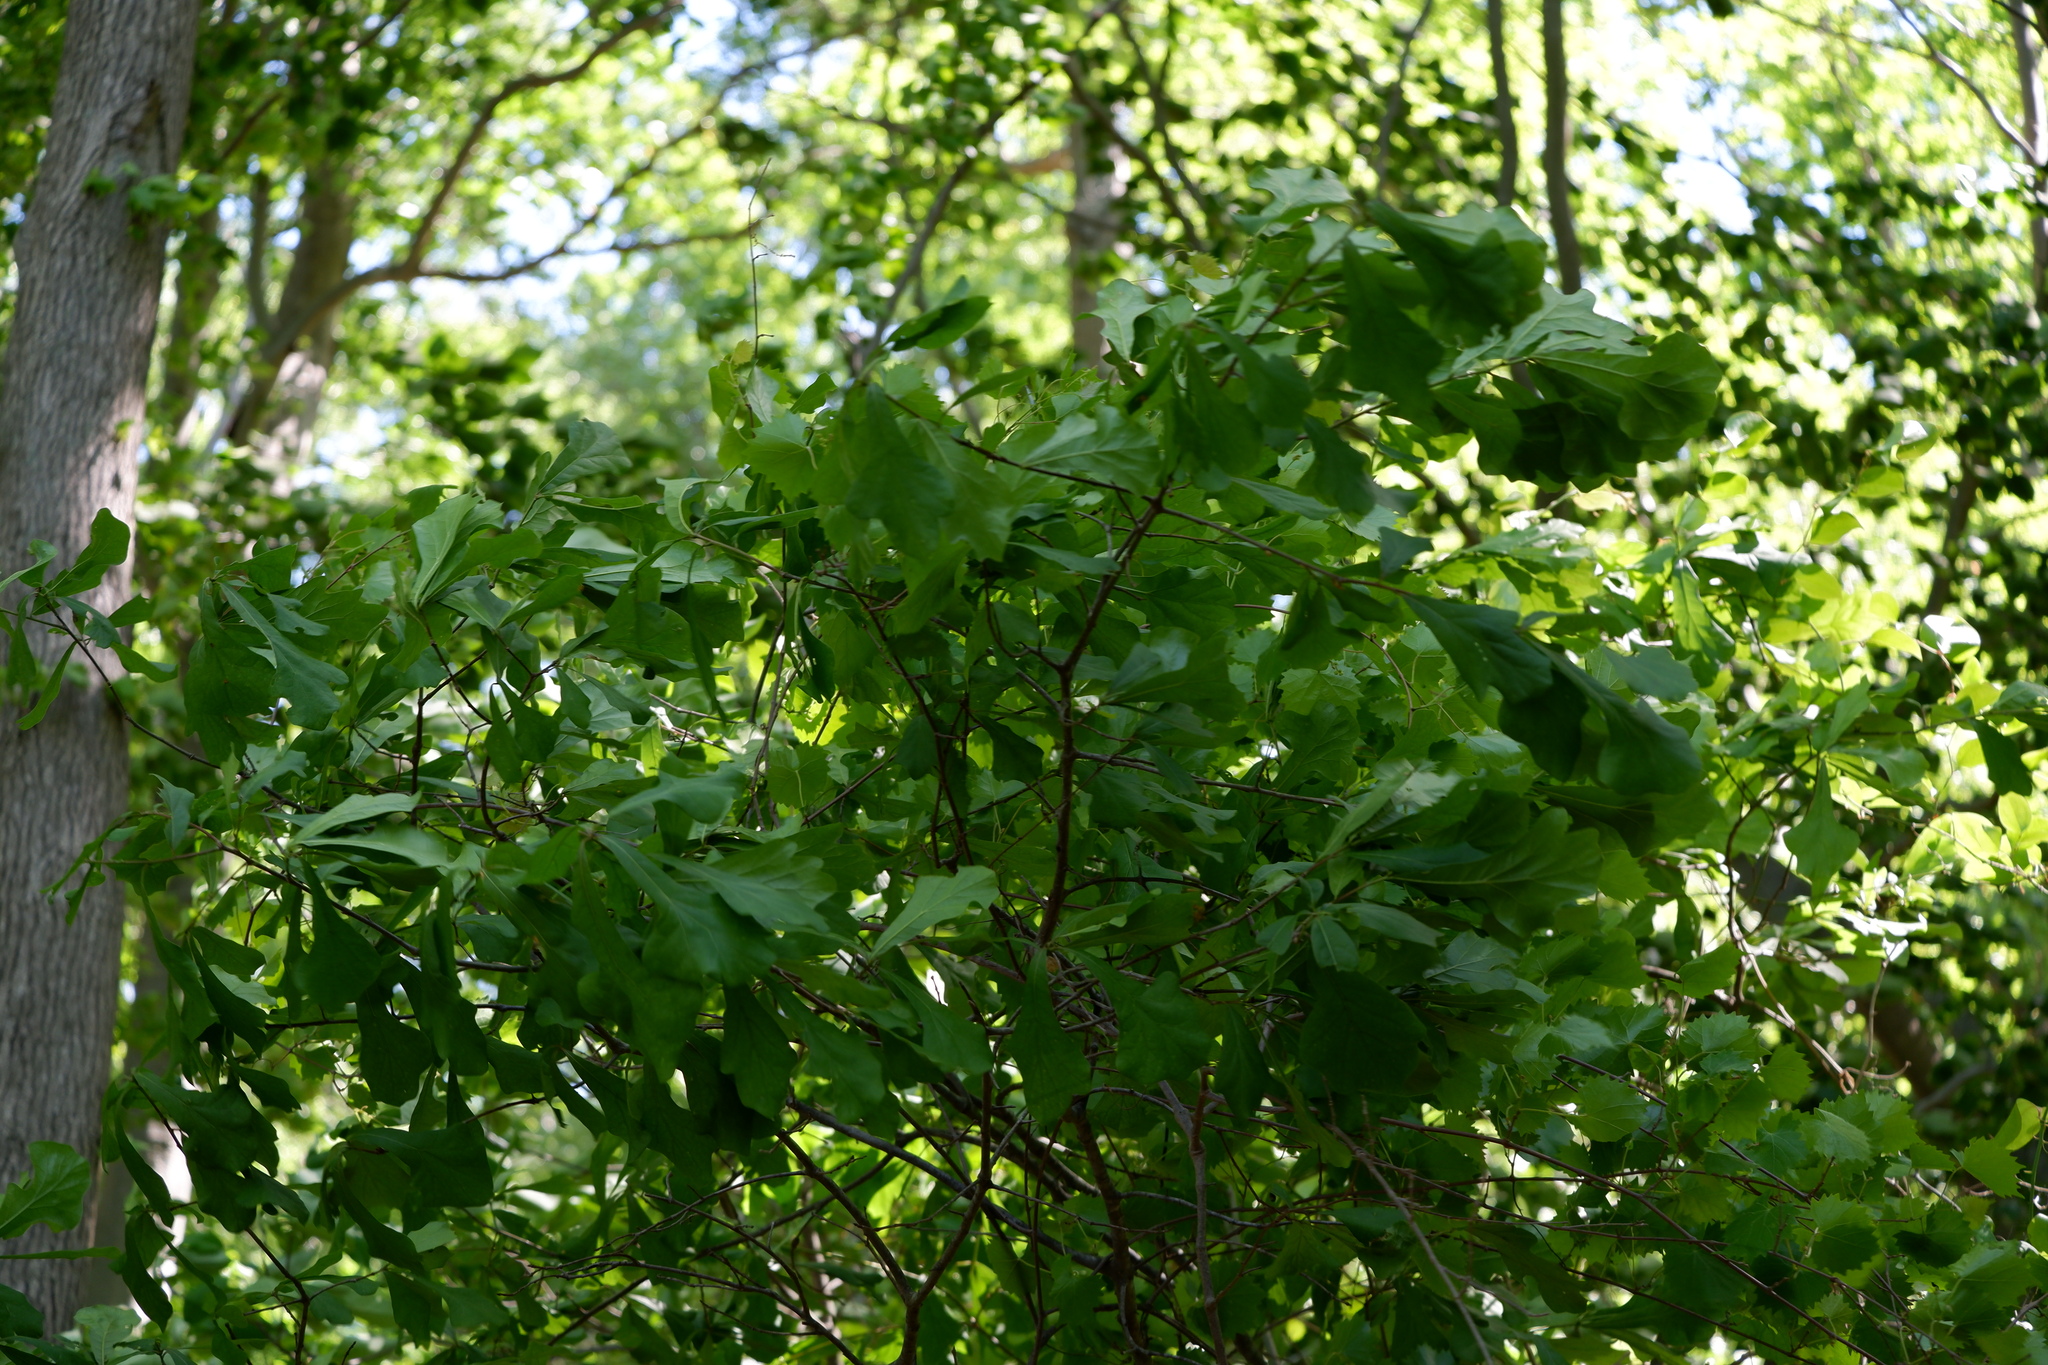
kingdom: Plantae
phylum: Tracheophyta
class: Magnoliopsida
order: Fagales
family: Fagaceae
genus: Quercus
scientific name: Quercus nigra
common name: Water oak
